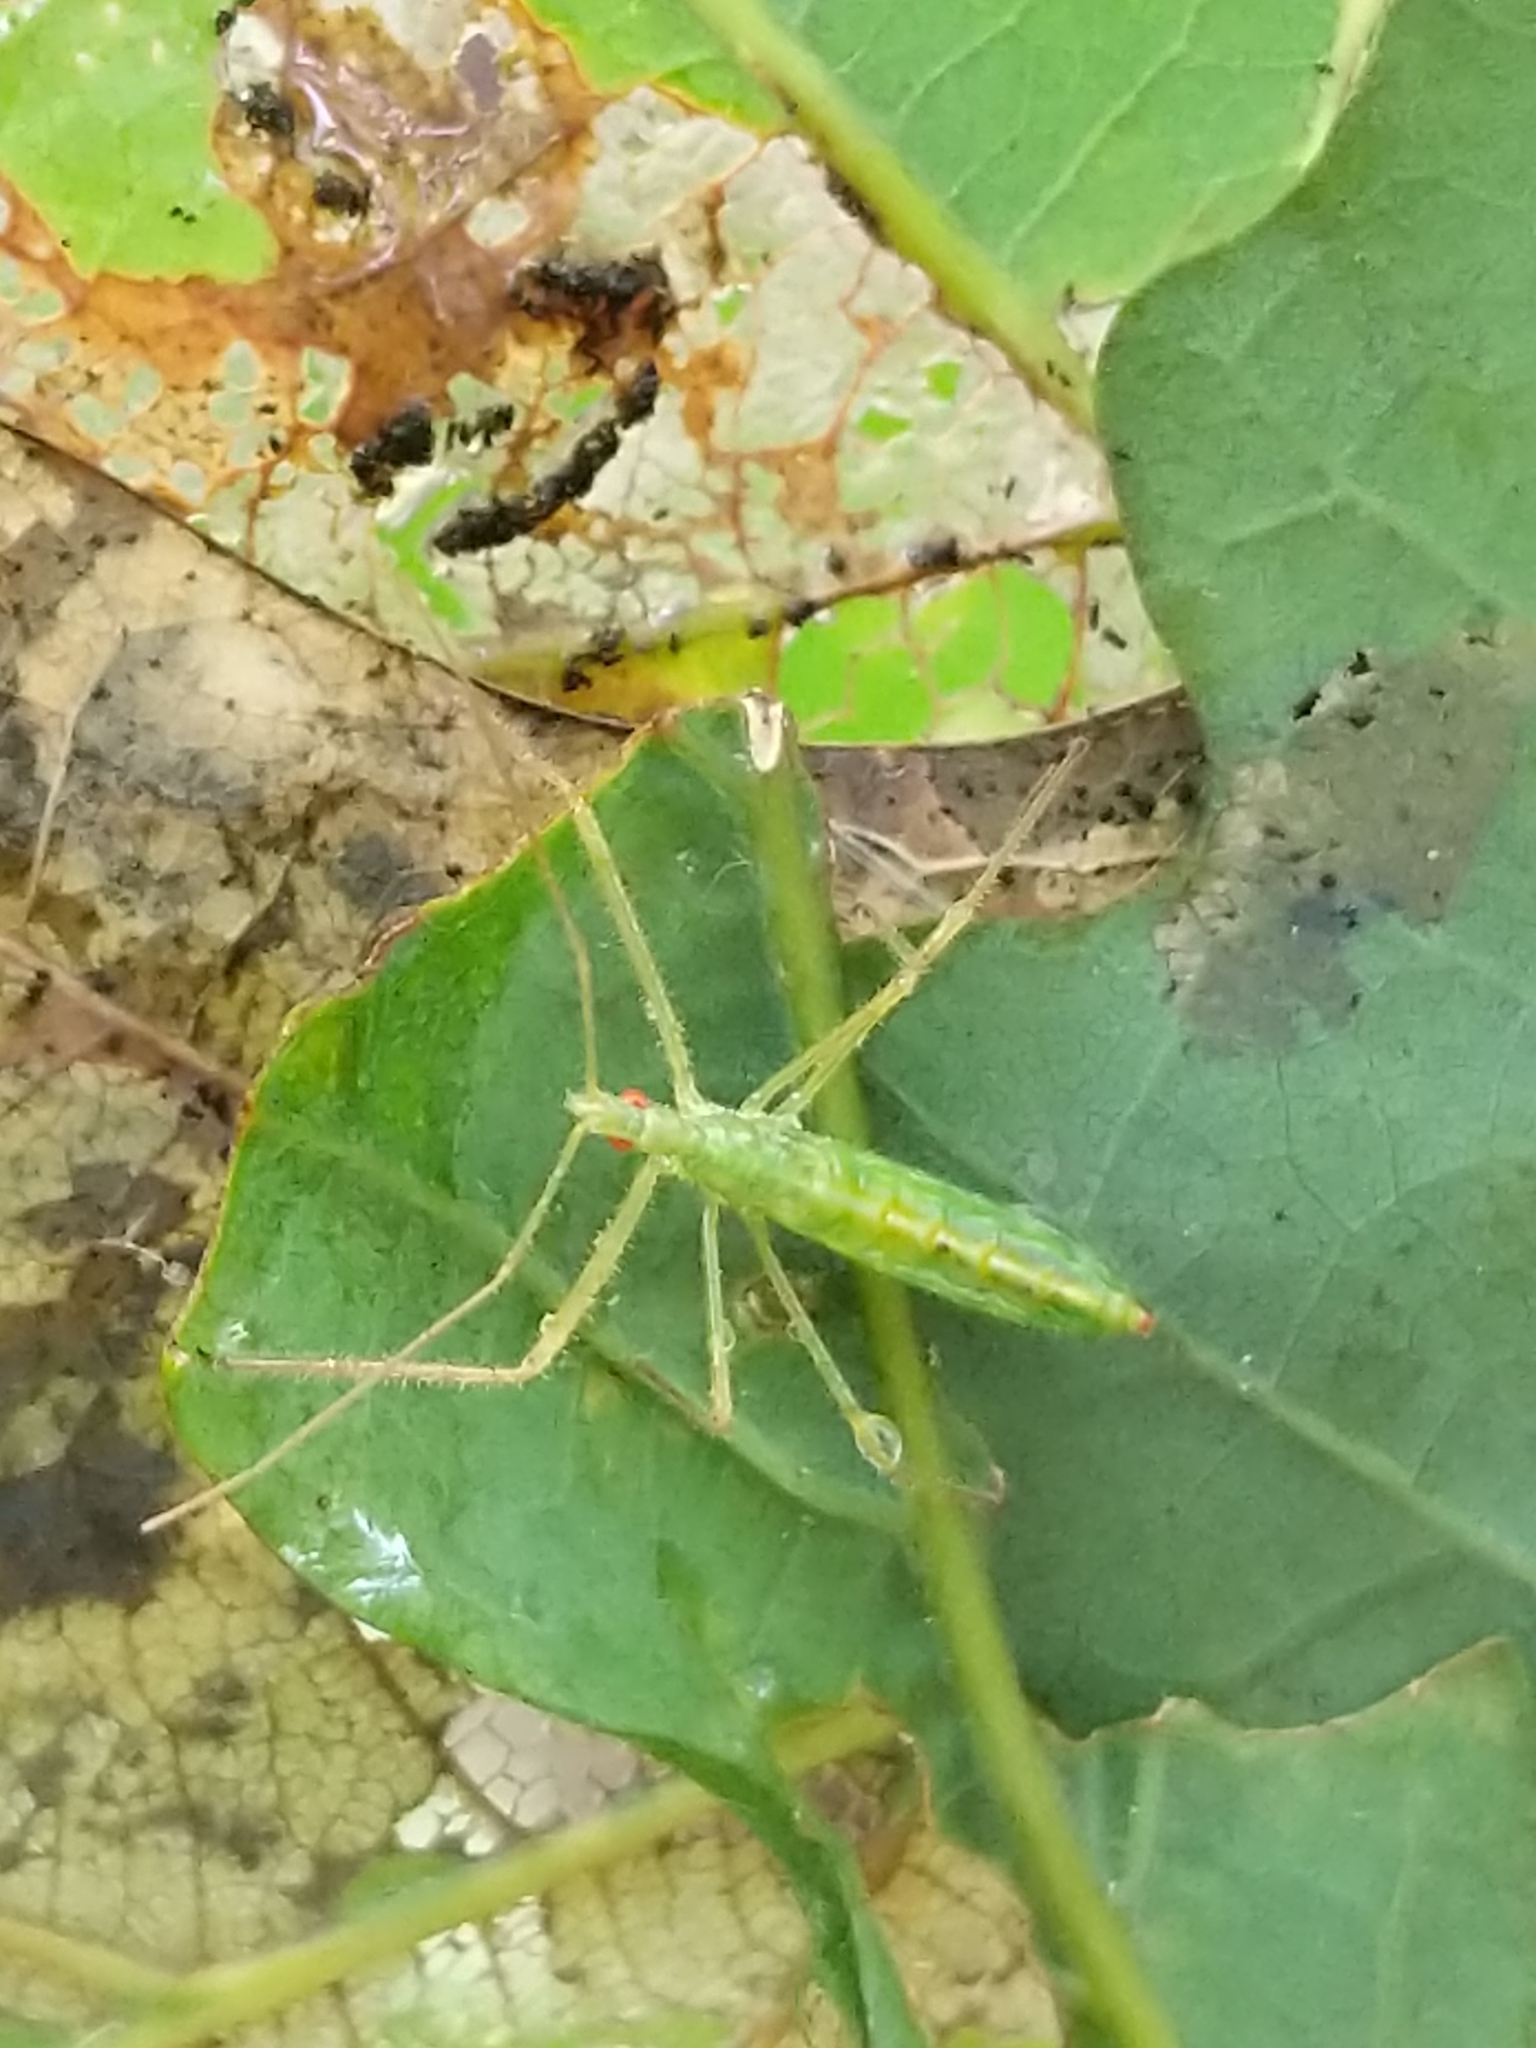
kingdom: Animalia
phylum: Arthropoda
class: Insecta
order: Hemiptera
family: Reduviidae
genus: Zelus
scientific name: Zelus luridus
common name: Pale green assassin bug
